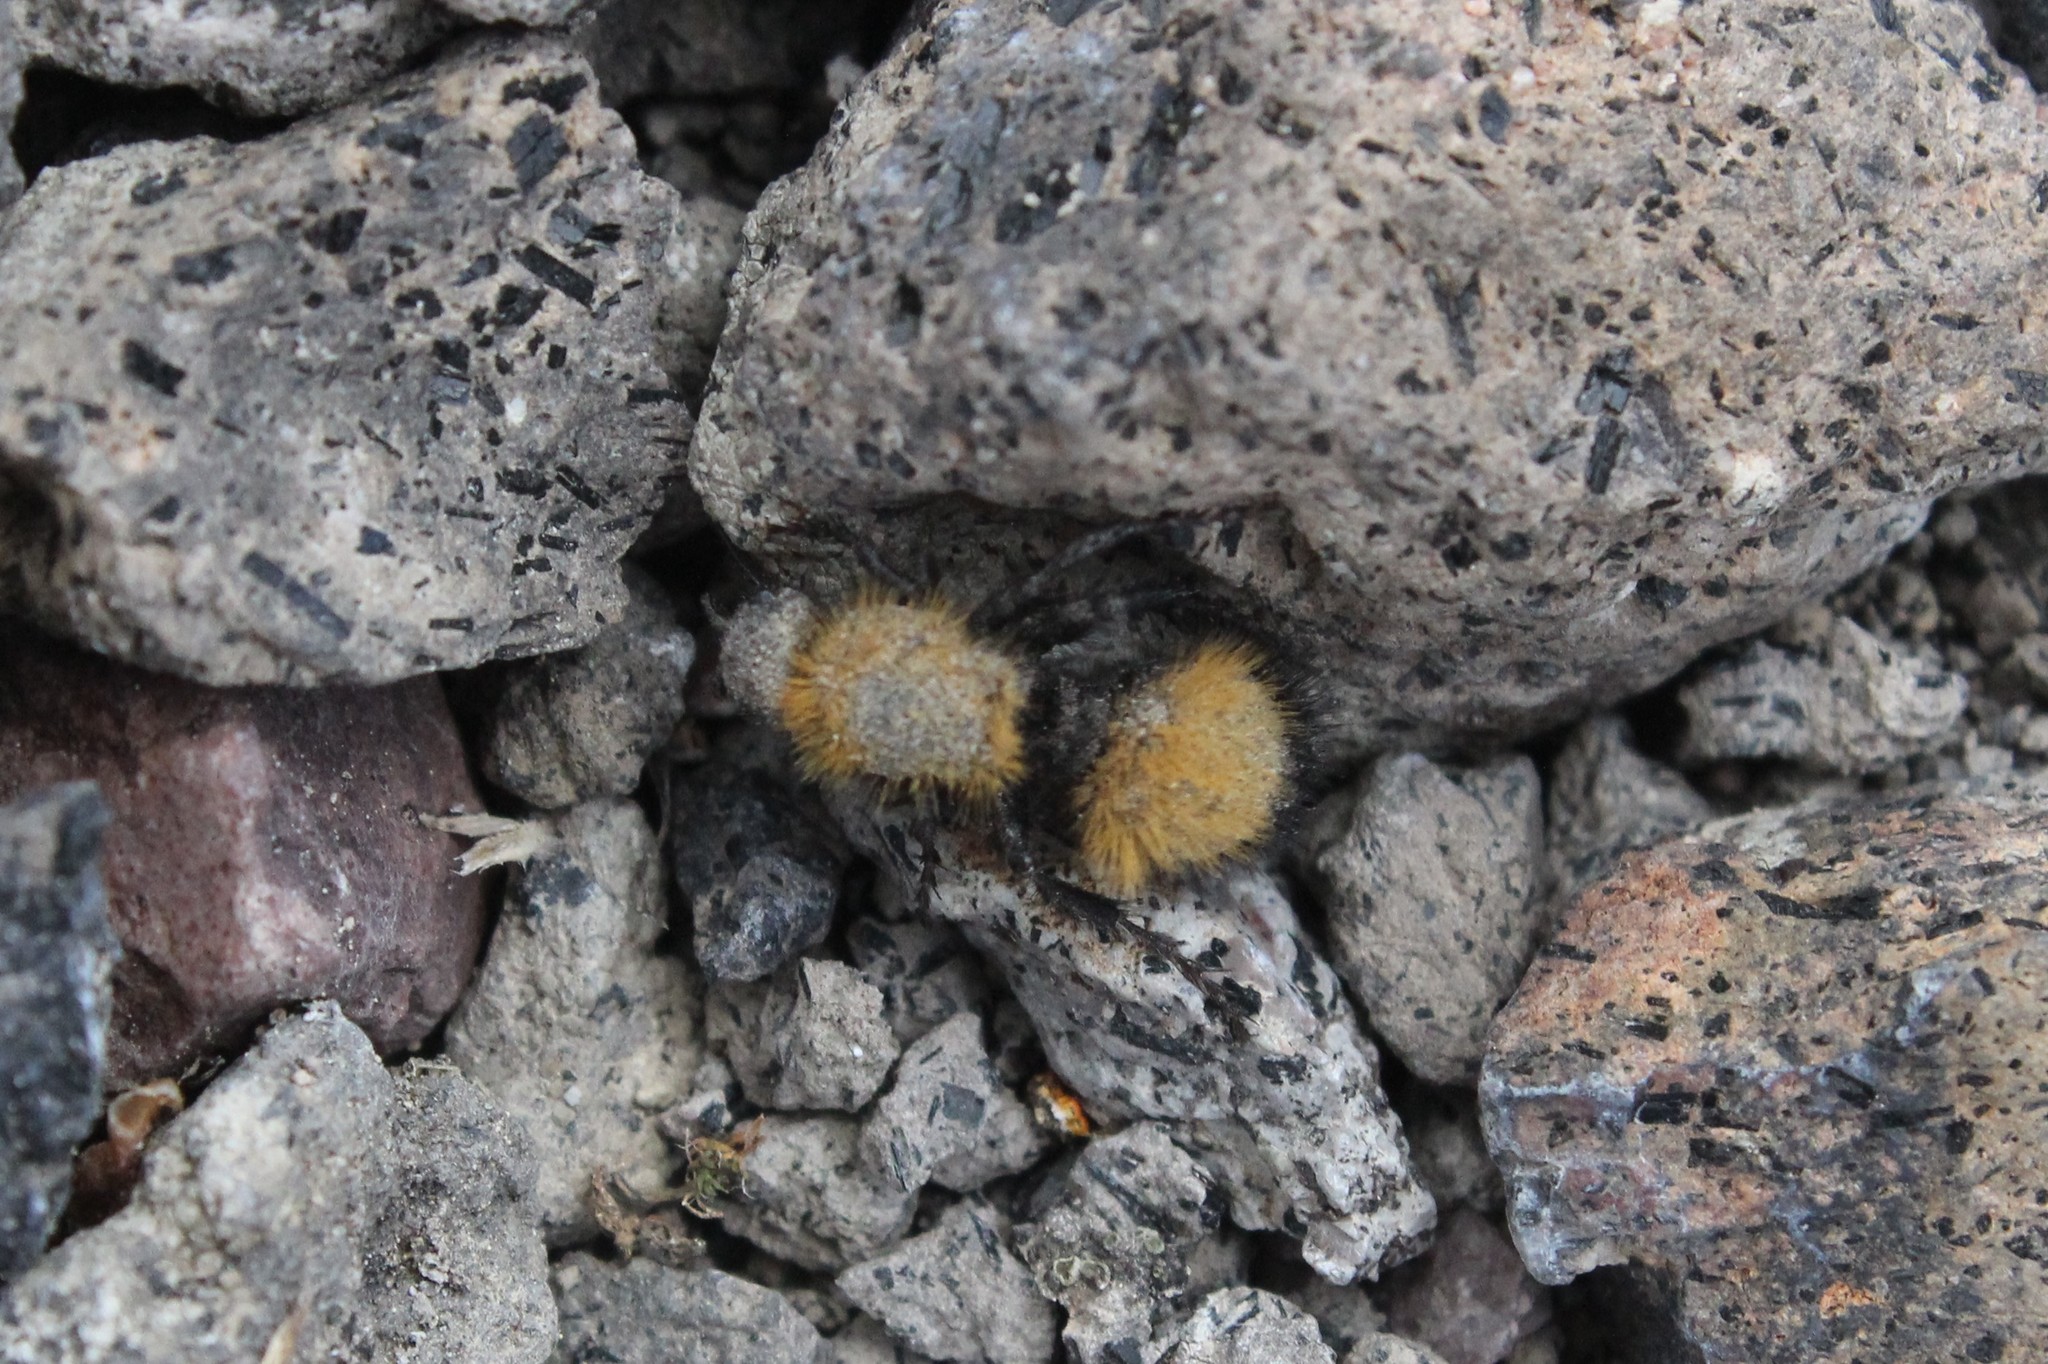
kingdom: Animalia
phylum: Arthropoda
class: Insecta
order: Hymenoptera
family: Mutillidae
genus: Dasymutilla
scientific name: Dasymutilla
